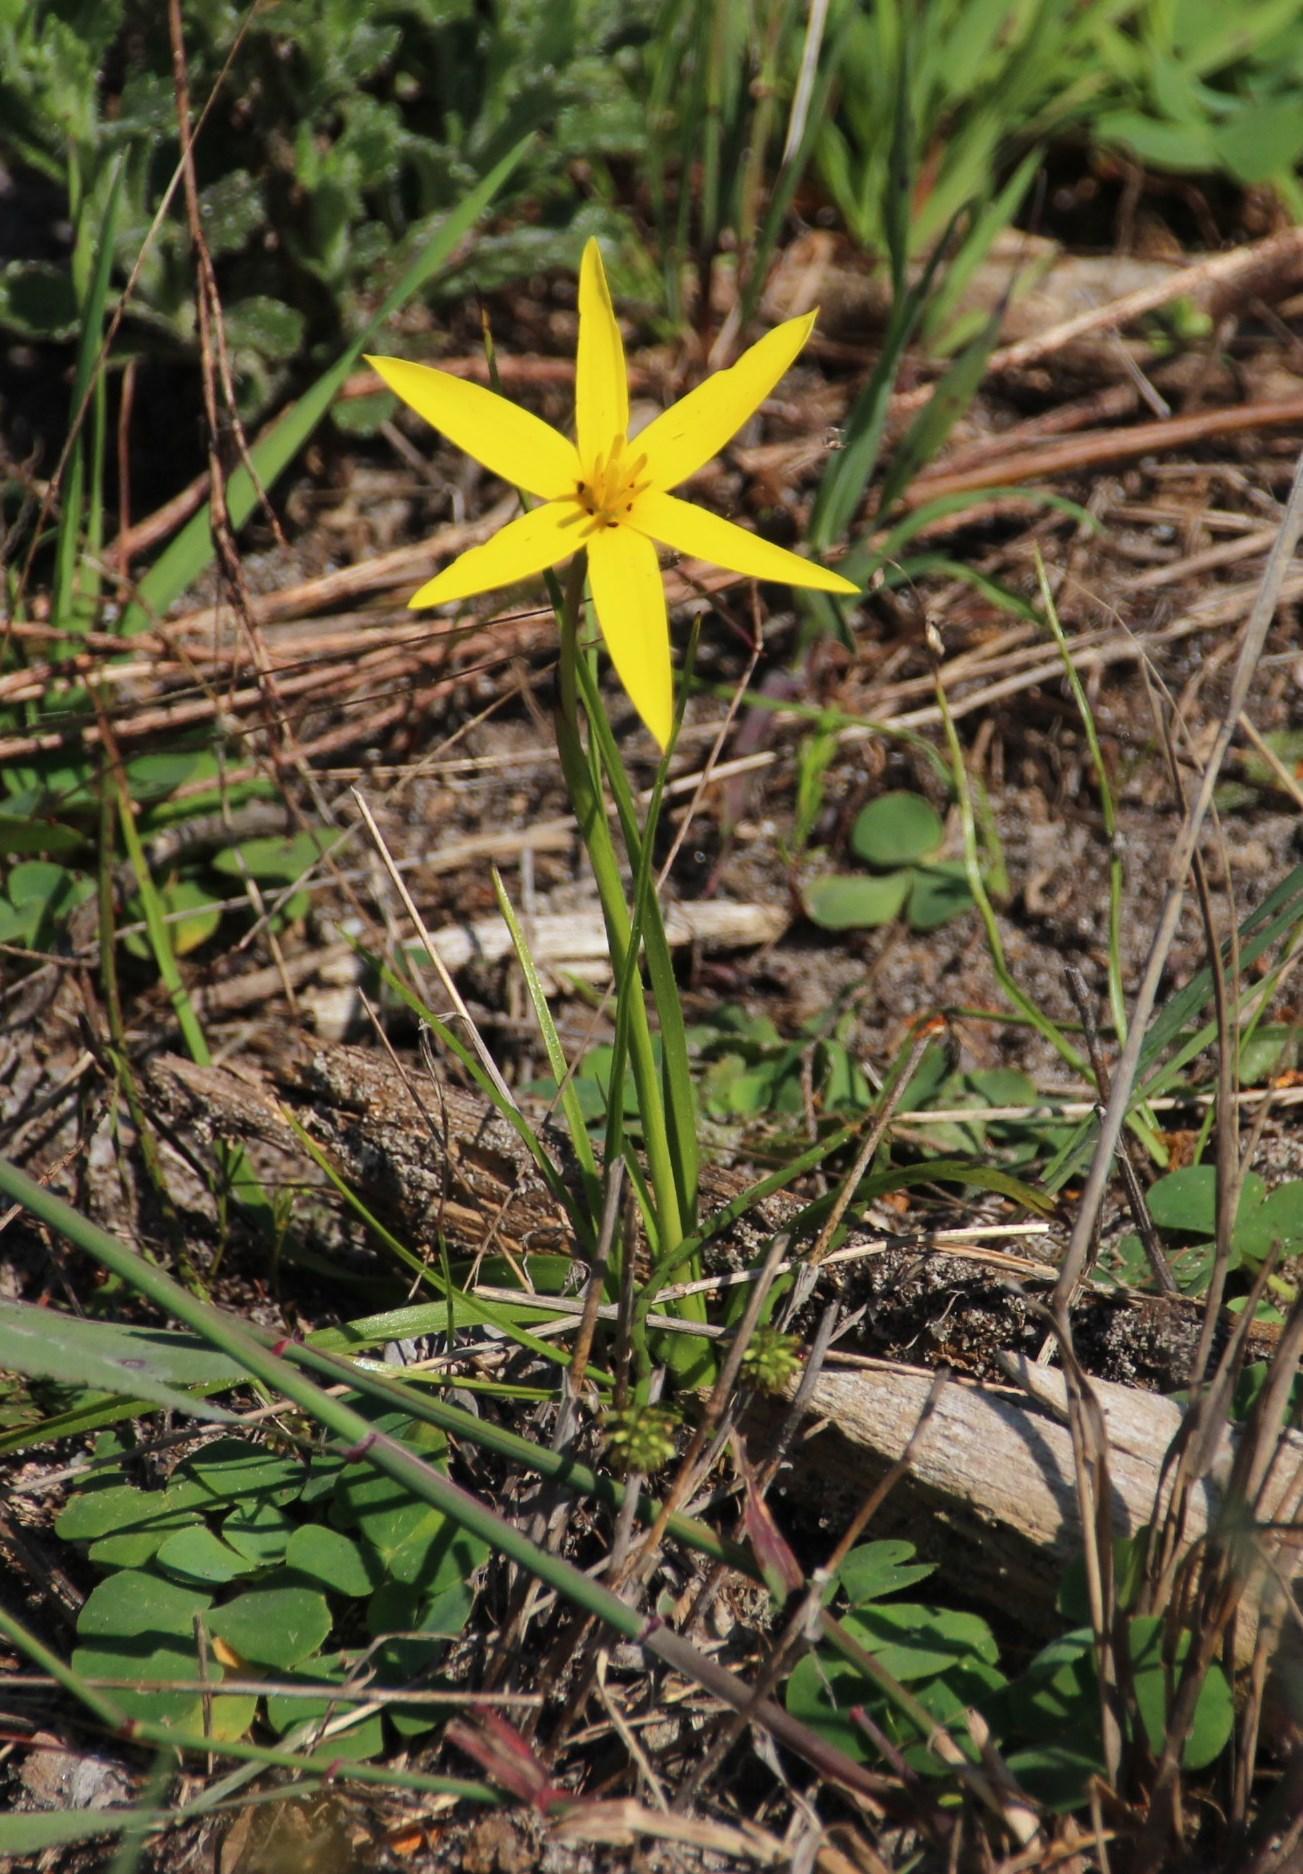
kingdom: Plantae
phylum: Tracheophyta
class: Liliopsida
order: Asparagales
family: Hypoxidaceae
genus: Pauridia
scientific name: Pauridia capensis
